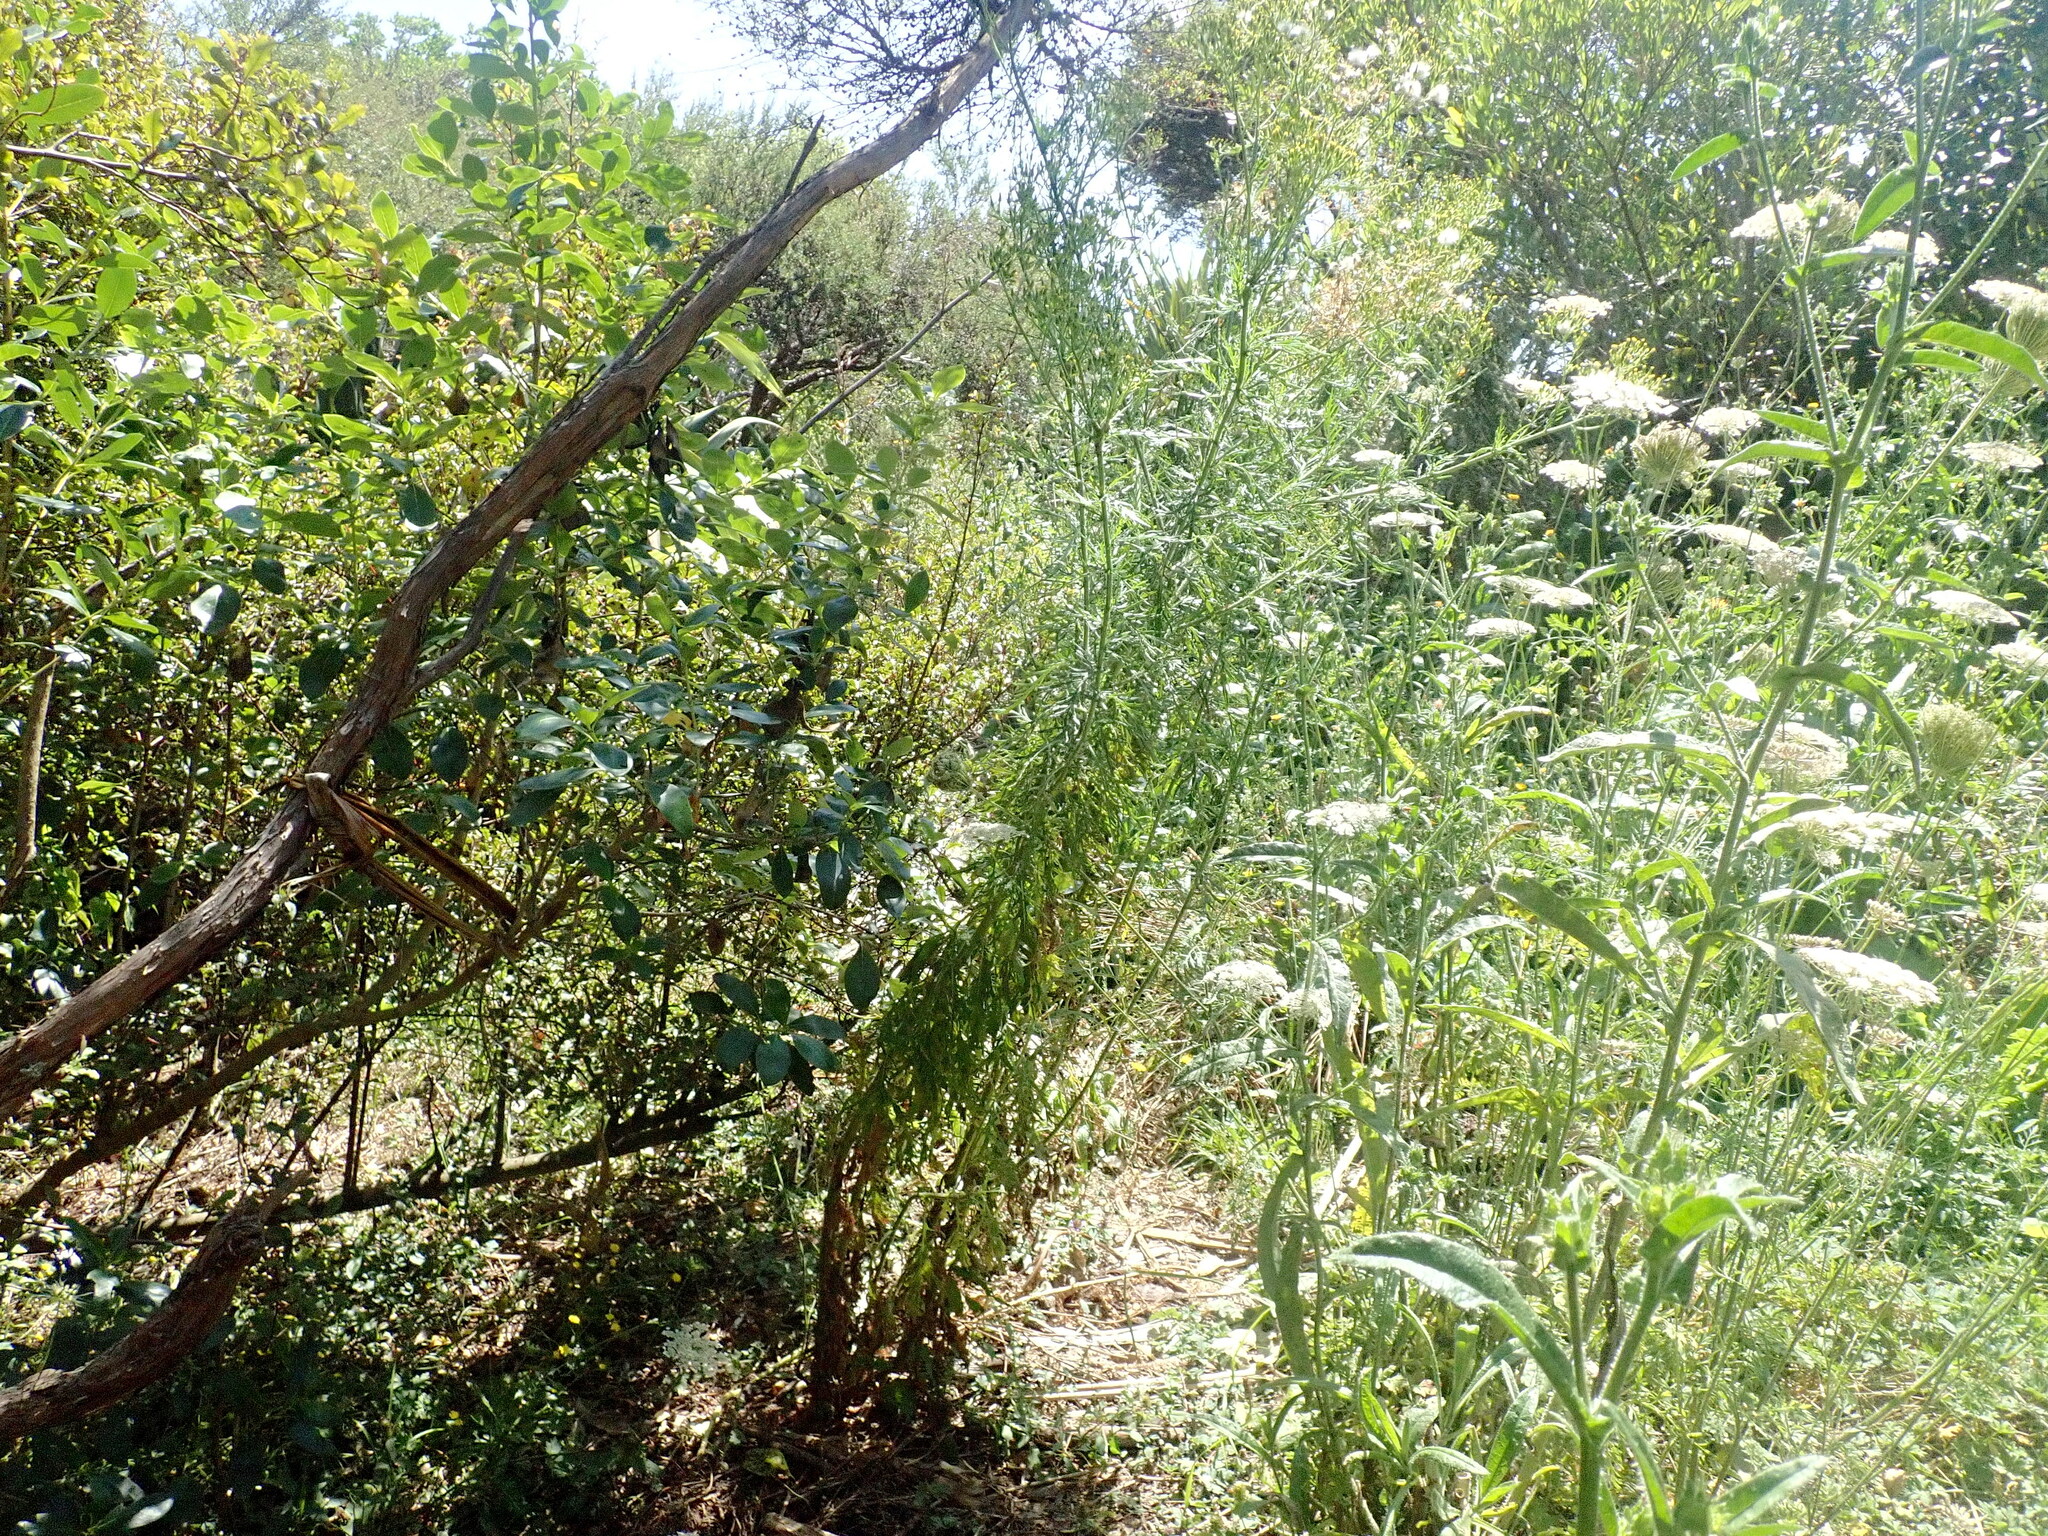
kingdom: Plantae
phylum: Tracheophyta
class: Magnoliopsida
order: Myrtales
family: Myrtaceae
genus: Leptospermum
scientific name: Leptospermum scoparium
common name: Broom tea-tree
